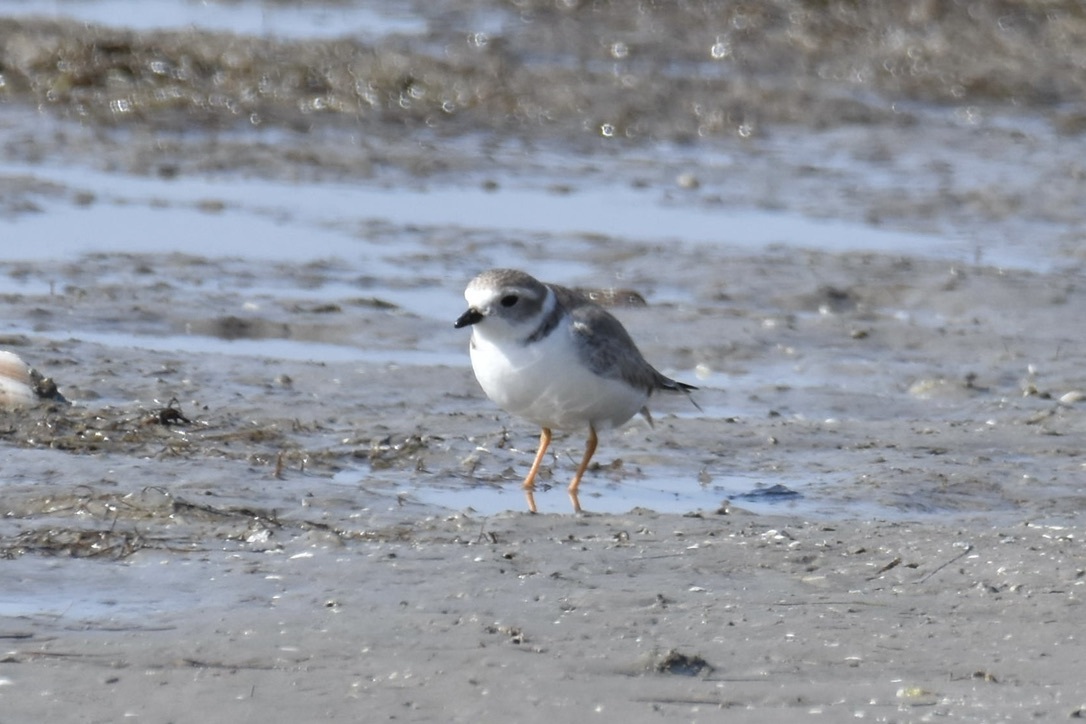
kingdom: Animalia
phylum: Chordata
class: Aves
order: Charadriiformes
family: Charadriidae
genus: Charadrius
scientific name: Charadrius melodus
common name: Piping plover
